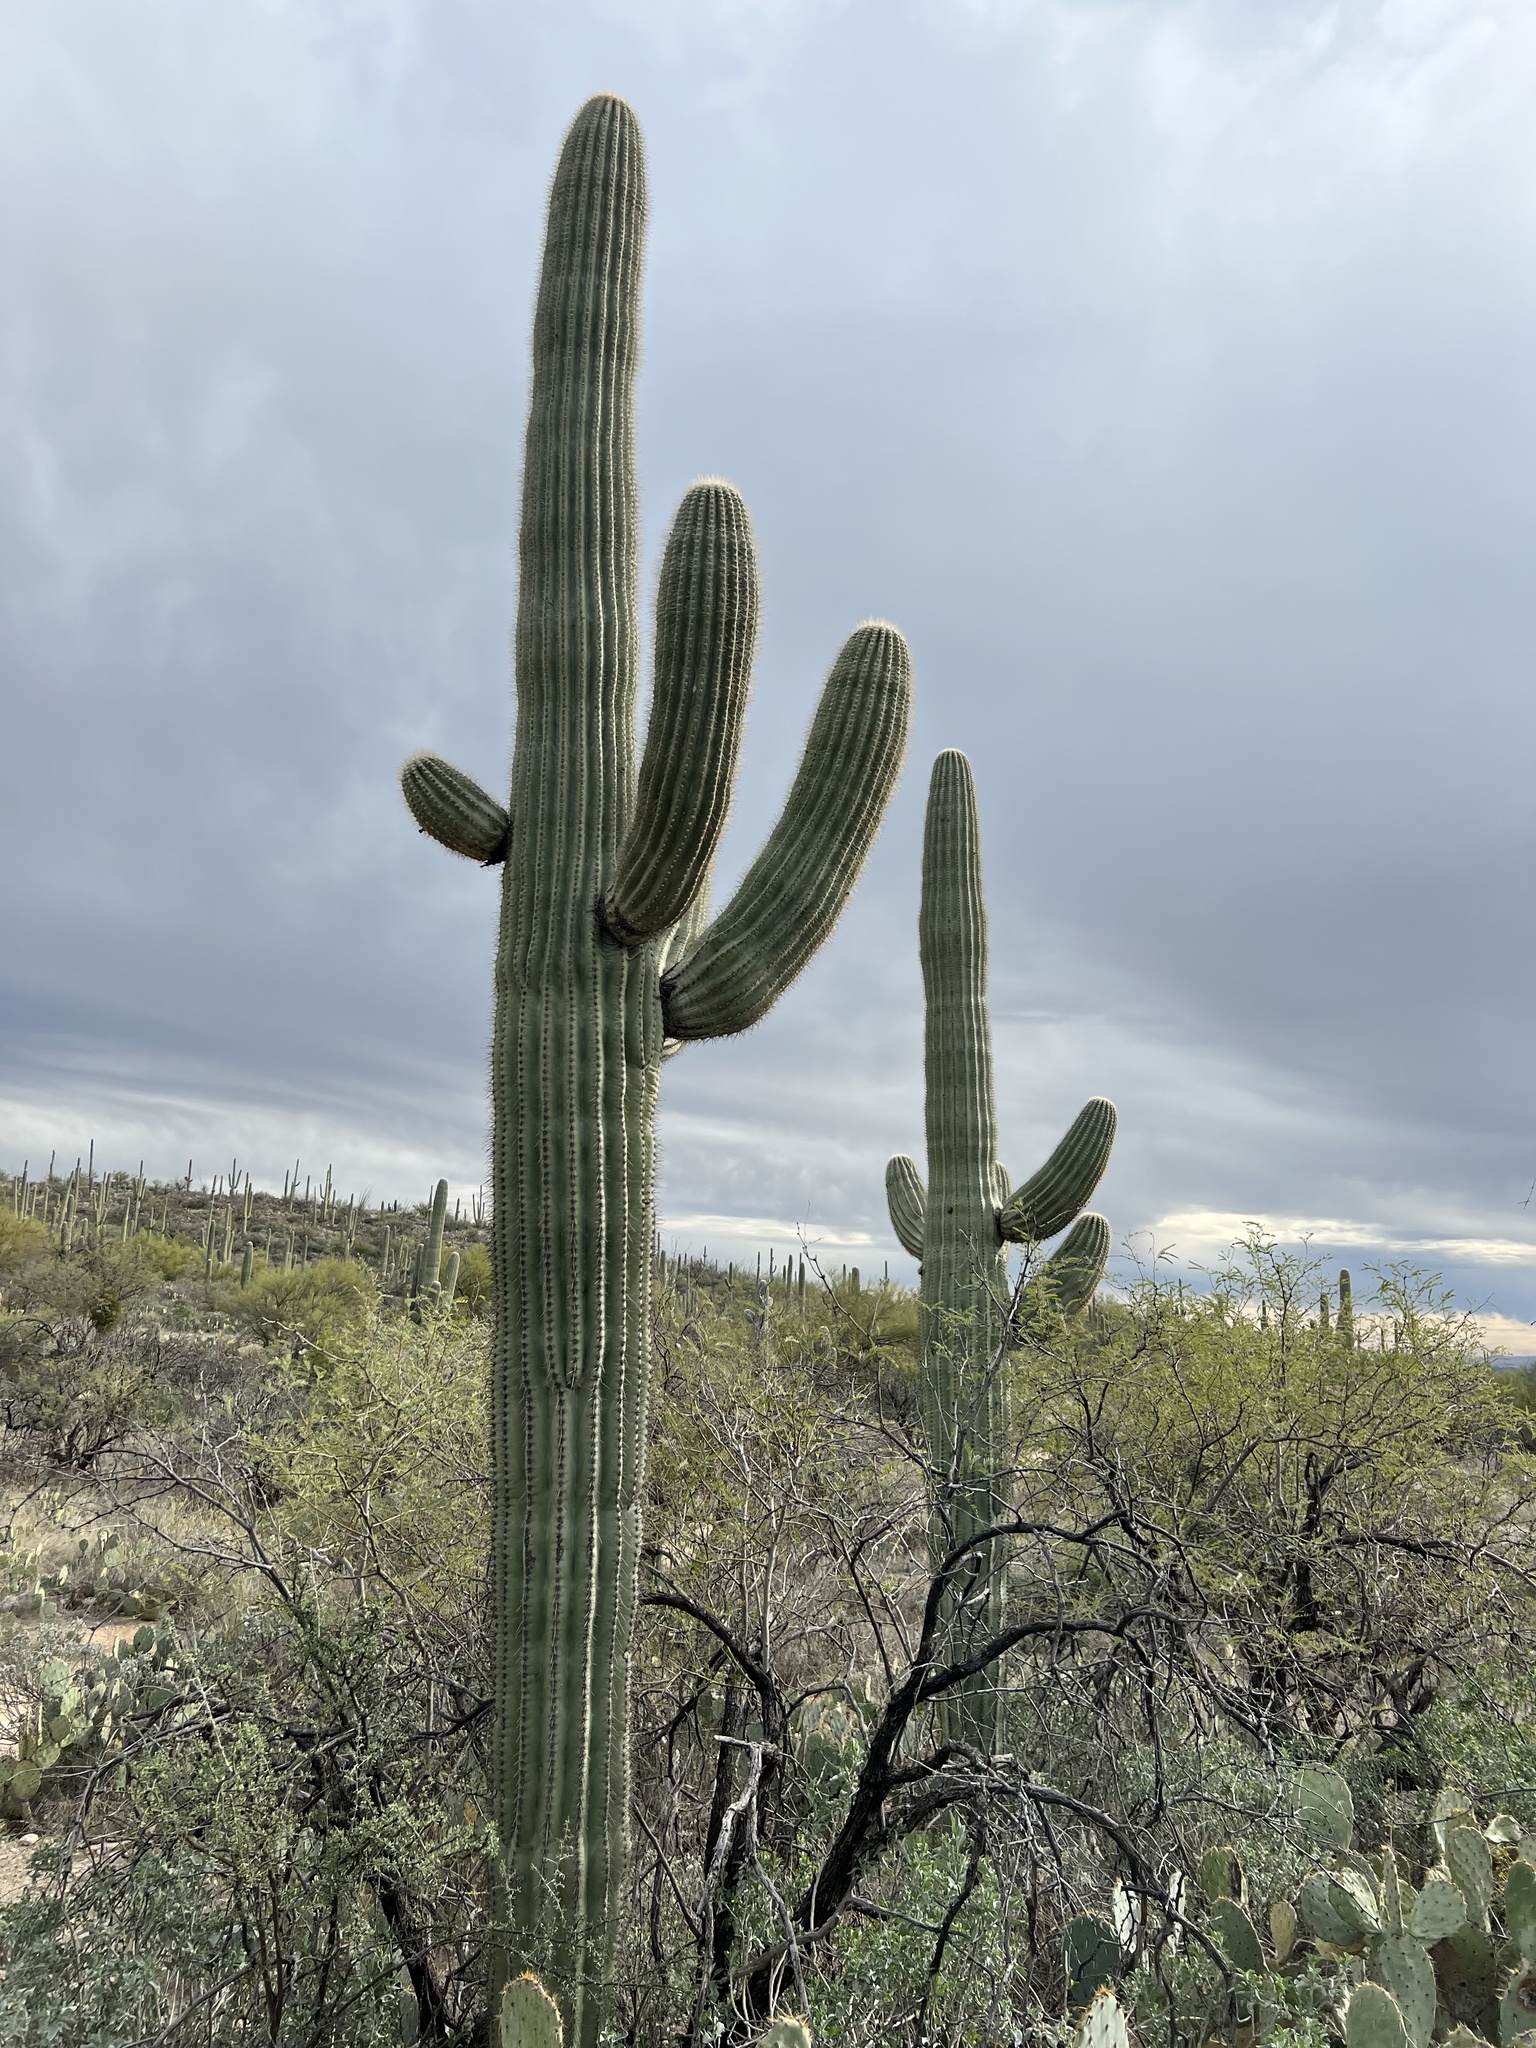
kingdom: Plantae
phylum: Tracheophyta
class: Magnoliopsida
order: Caryophyllales
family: Cactaceae
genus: Carnegiea
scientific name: Carnegiea gigantea
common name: Saguaro
